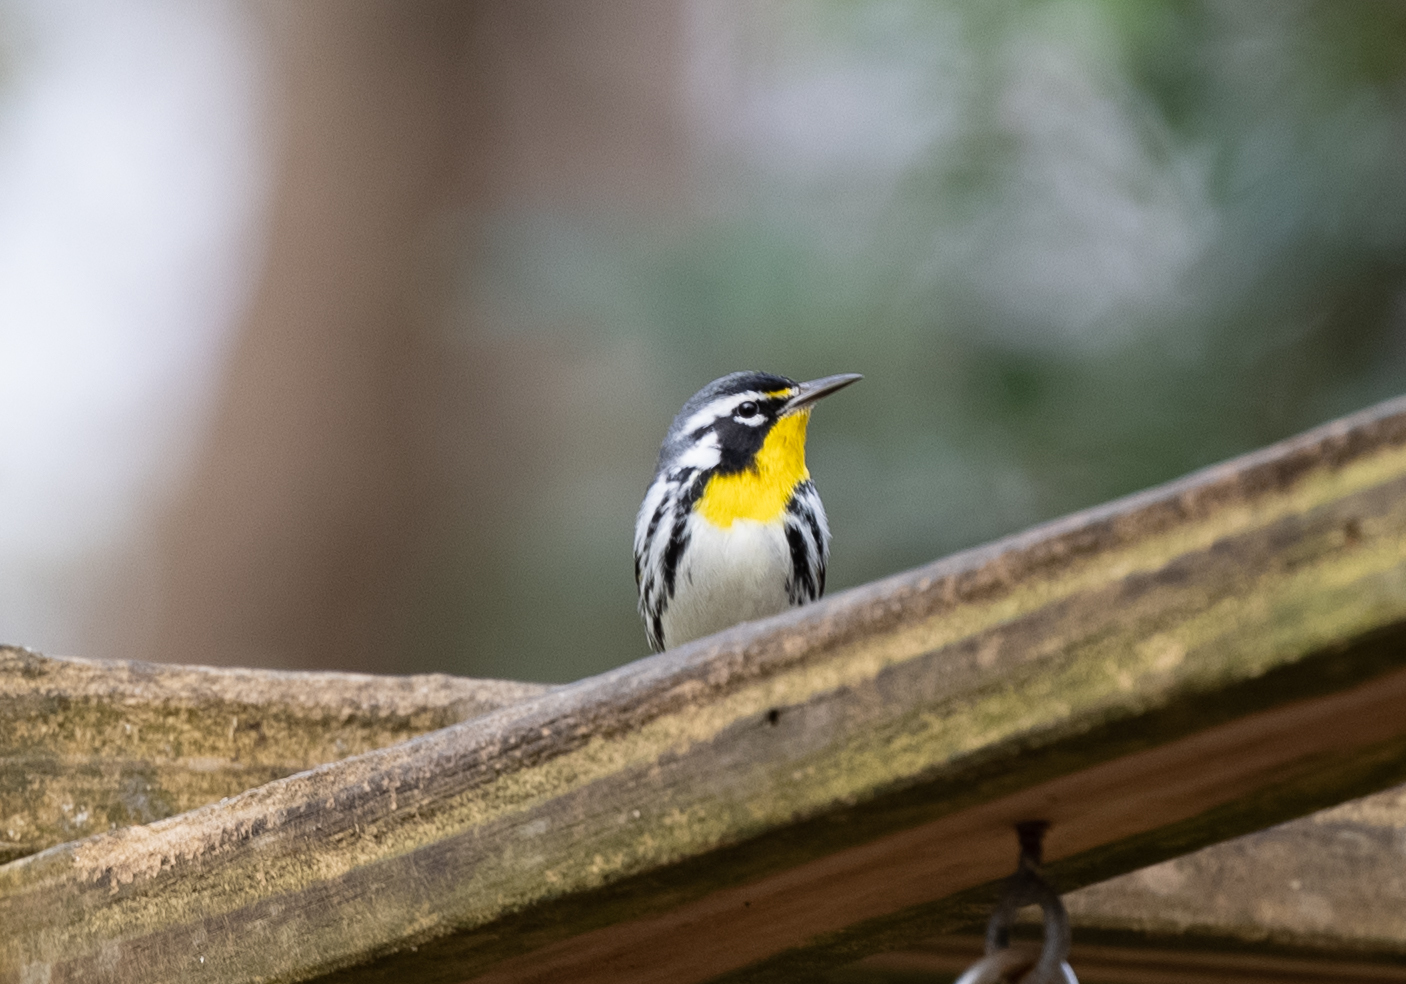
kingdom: Animalia
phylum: Chordata
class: Aves
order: Passeriformes
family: Parulidae
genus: Setophaga
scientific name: Setophaga dominica
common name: Yellow-throated warbler
